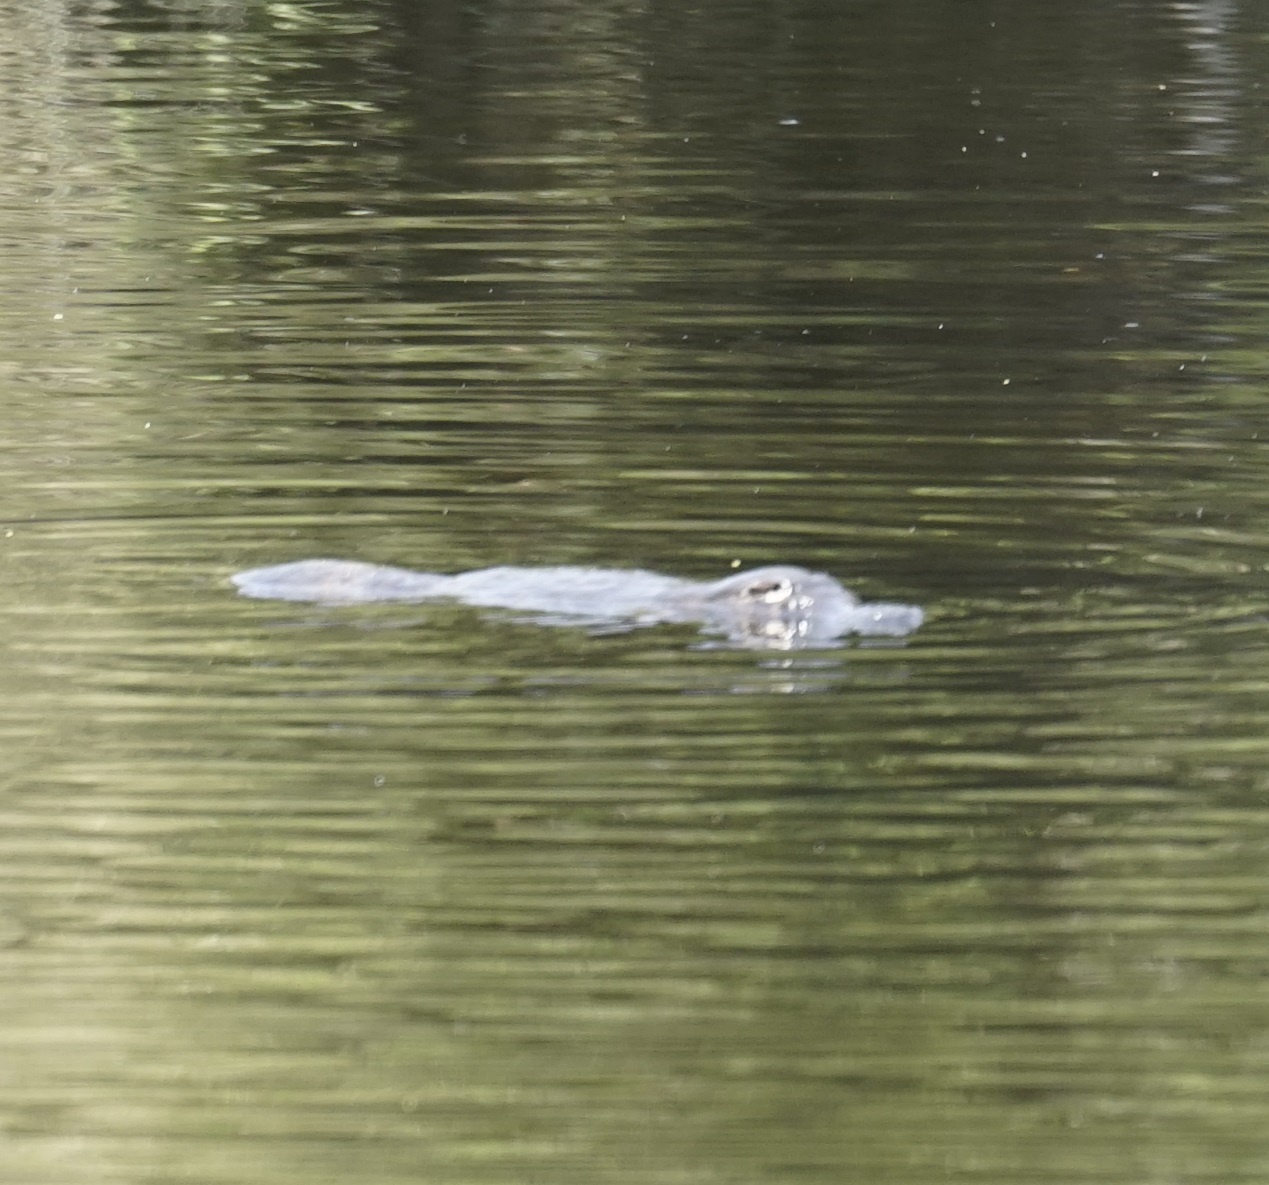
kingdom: Animalia
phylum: Chordata
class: Mammalia
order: Monotremata
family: Ornithorhynchidae
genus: Ornithorhynchus
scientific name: Ornithorhynchus anatinus
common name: Platypus
